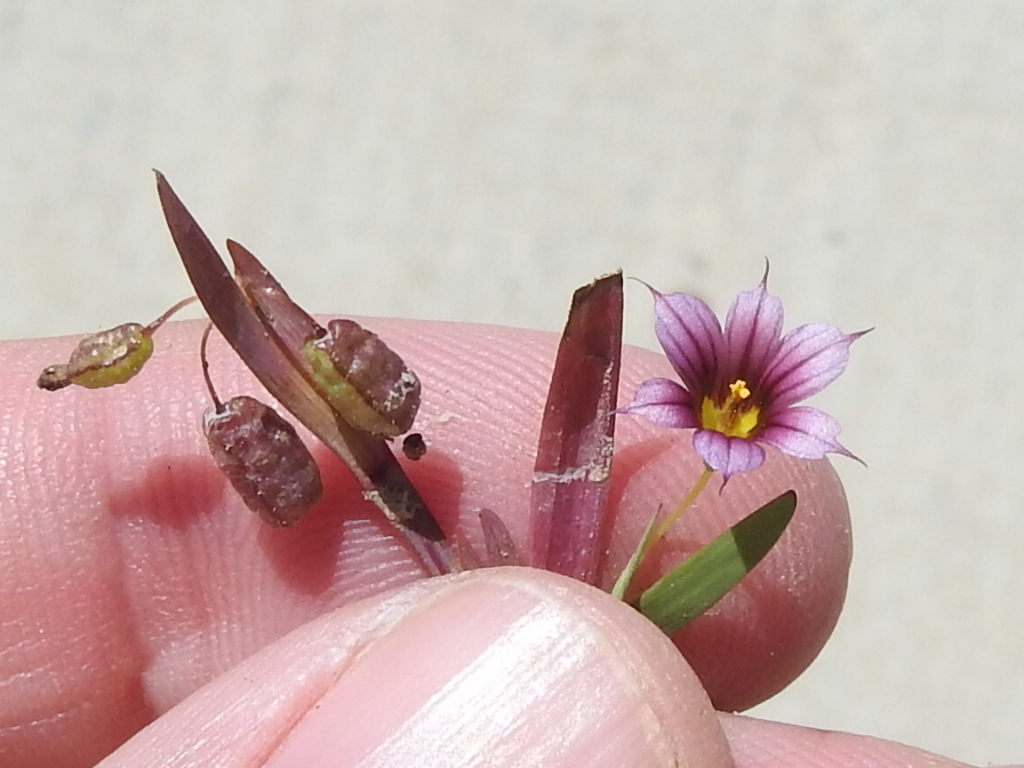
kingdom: Plantae
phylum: Tracheophyta
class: Liliopsida
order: Asparagales
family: Iridaceae
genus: Sisyrinchium
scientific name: Sisyrinchium minus
